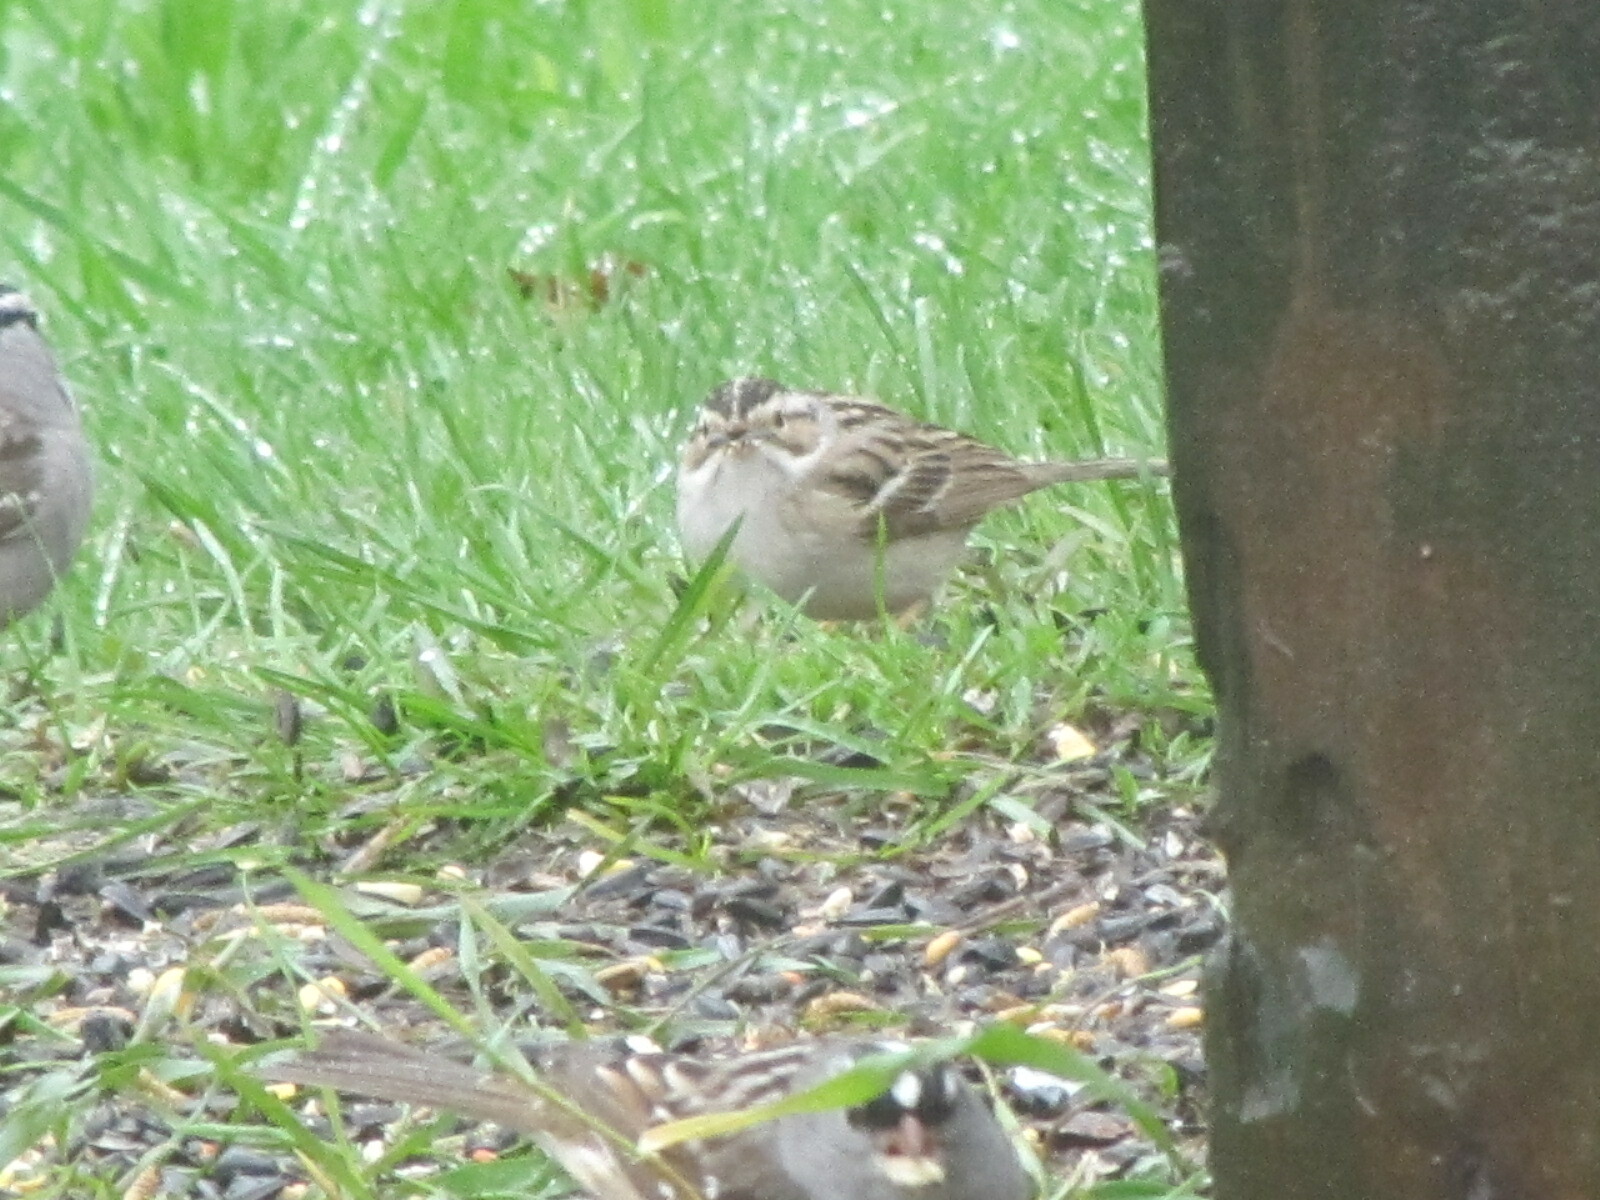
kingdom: Animalia
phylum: Chordata
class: Aves
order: Passeriformes
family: Passerellidae
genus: Spizella
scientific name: Spizella pallida
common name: Clay-colored sparrow
